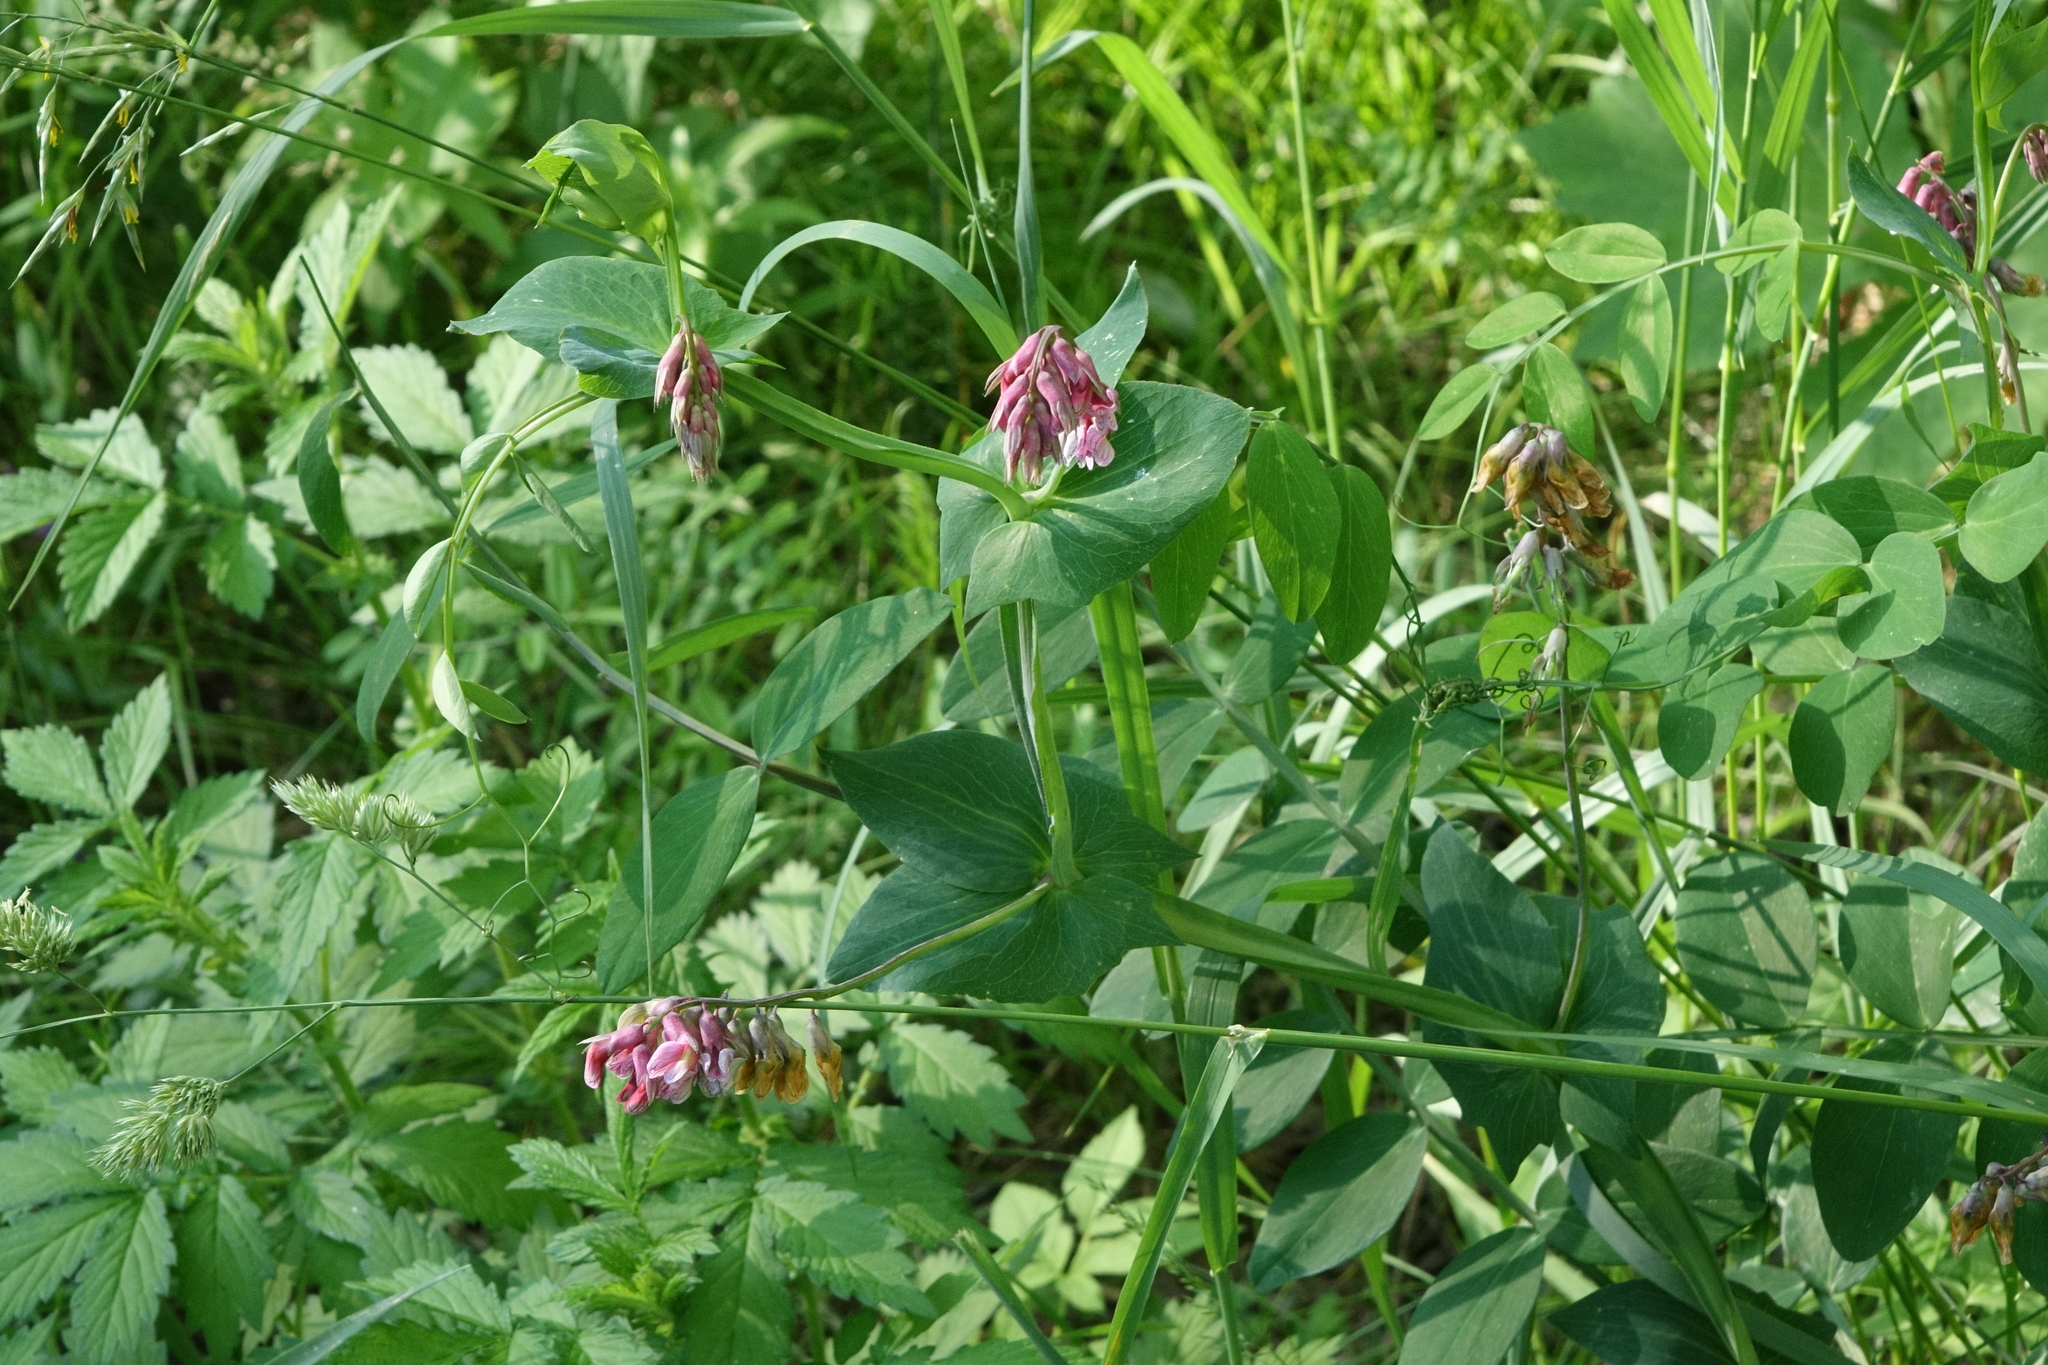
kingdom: Plantae
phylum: Tracheophyta
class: Magnoliopsida
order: Fabales
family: Fabaceae
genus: Lathyrus
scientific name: Lathyrus pisiformis
